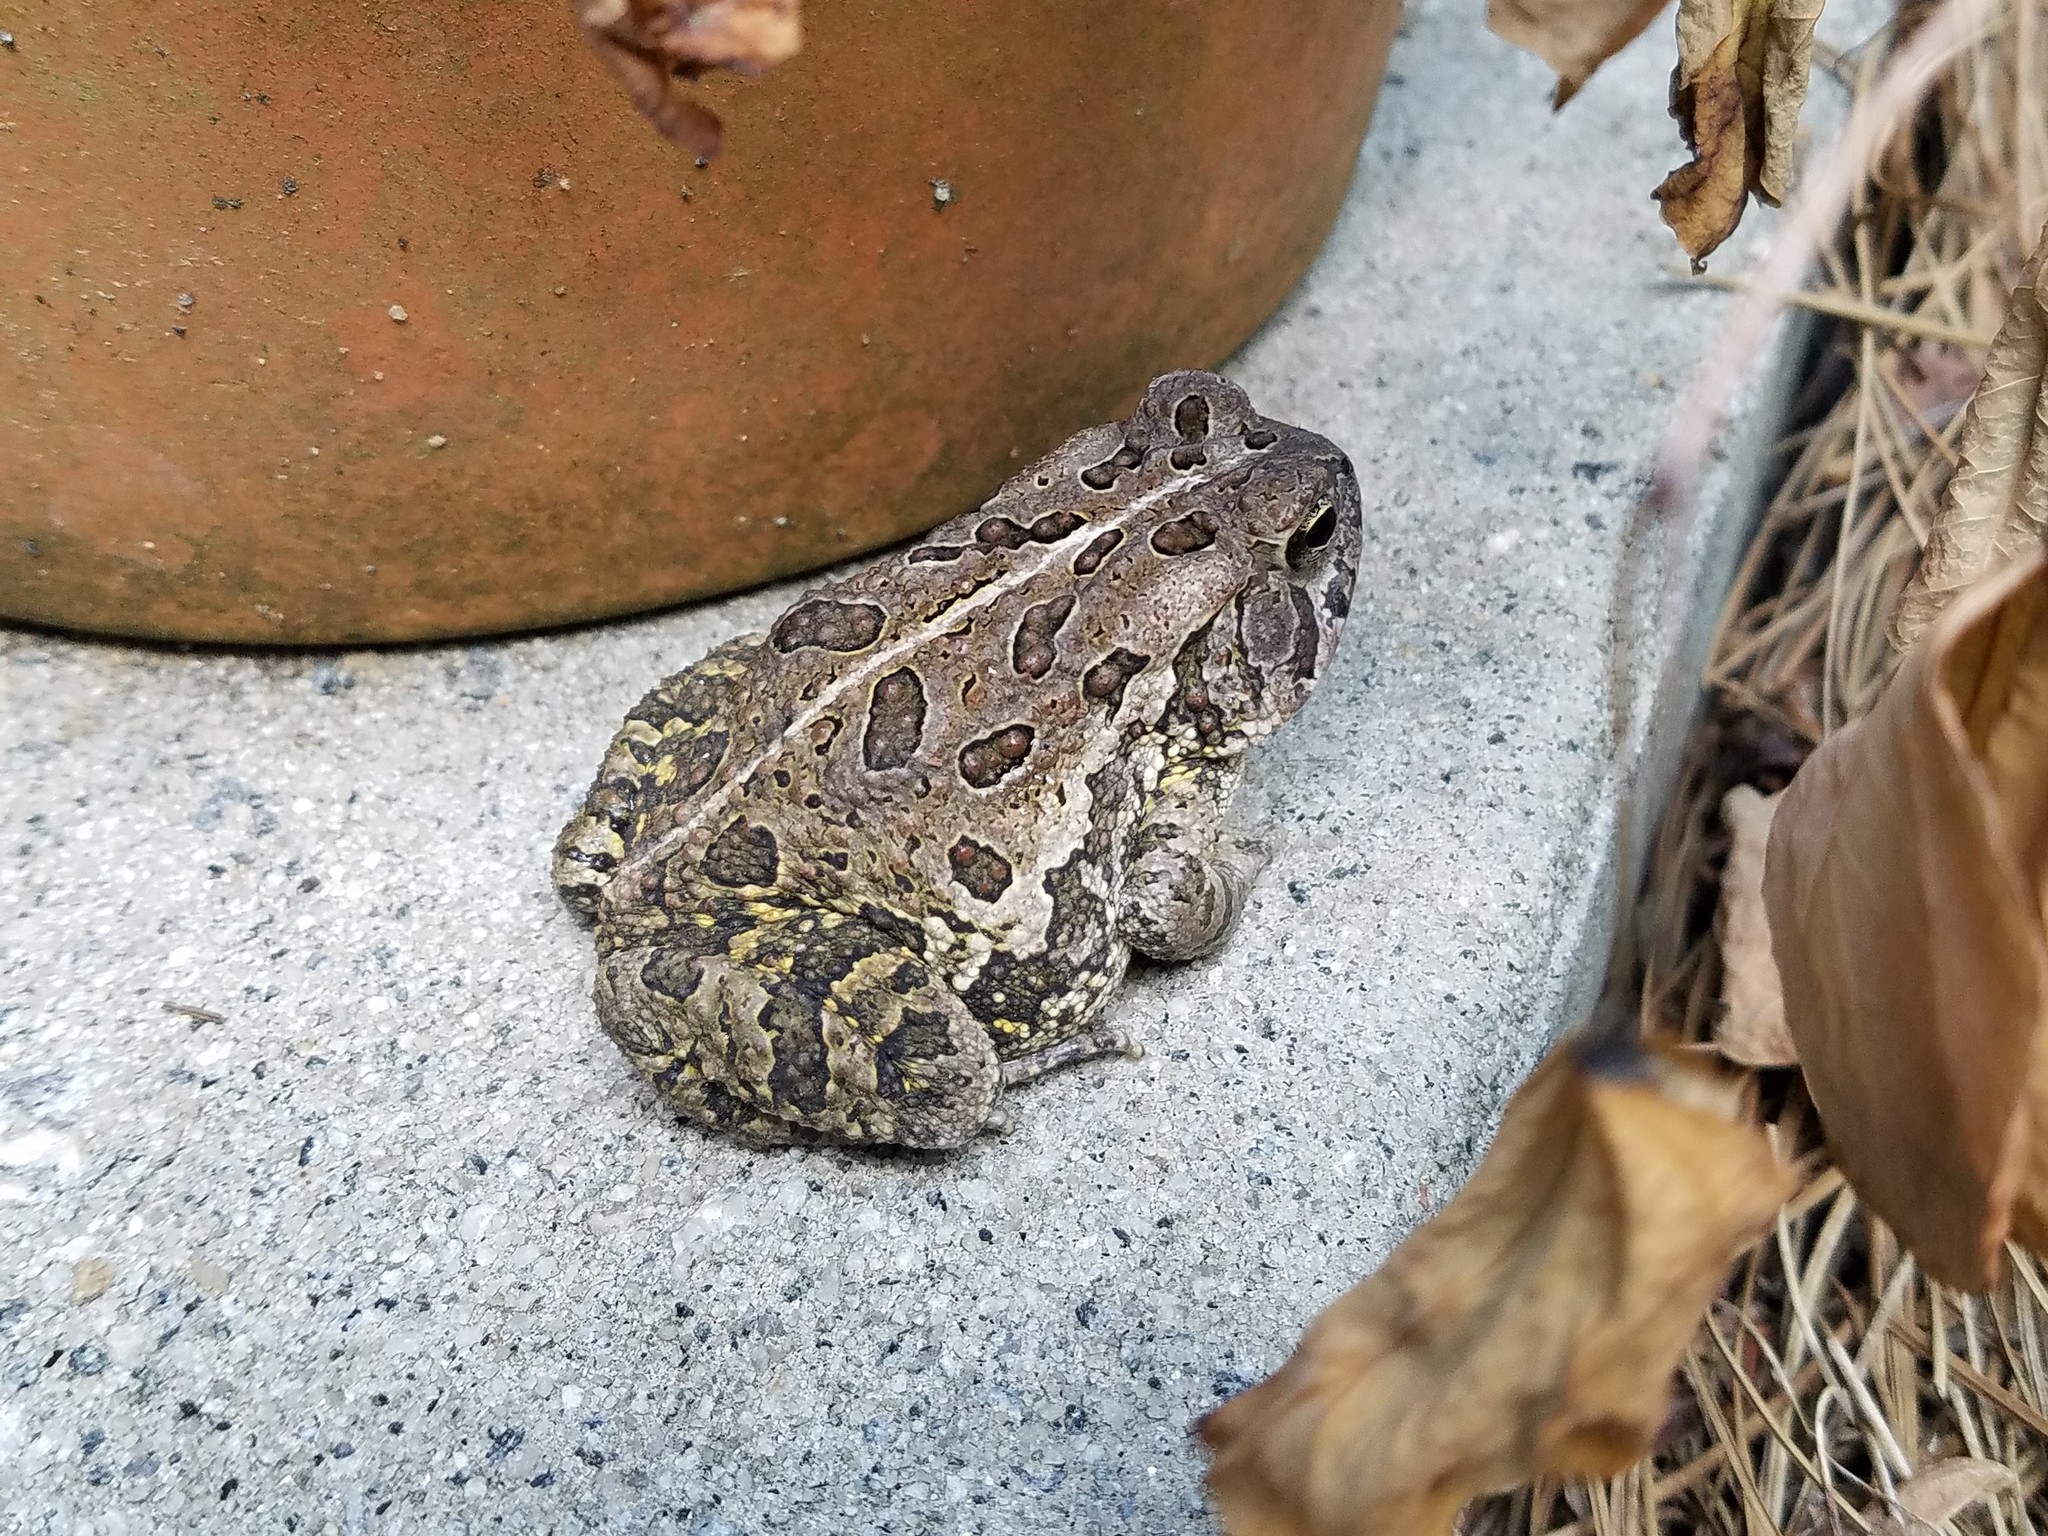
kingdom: Animalia
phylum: Chordata
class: Amphibia
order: Anura
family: Bufonidae
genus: Anaxyrus
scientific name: Anaxyrus fowleri
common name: Fowler's toad
